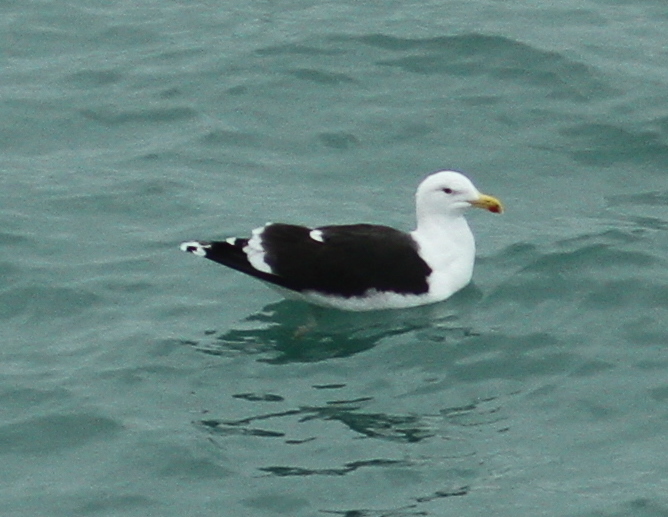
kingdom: Animalia
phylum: Chordata
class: Aves
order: Charadriiformes
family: Laridae
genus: Larus
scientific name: Larus marinus
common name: Great black-backed gull
